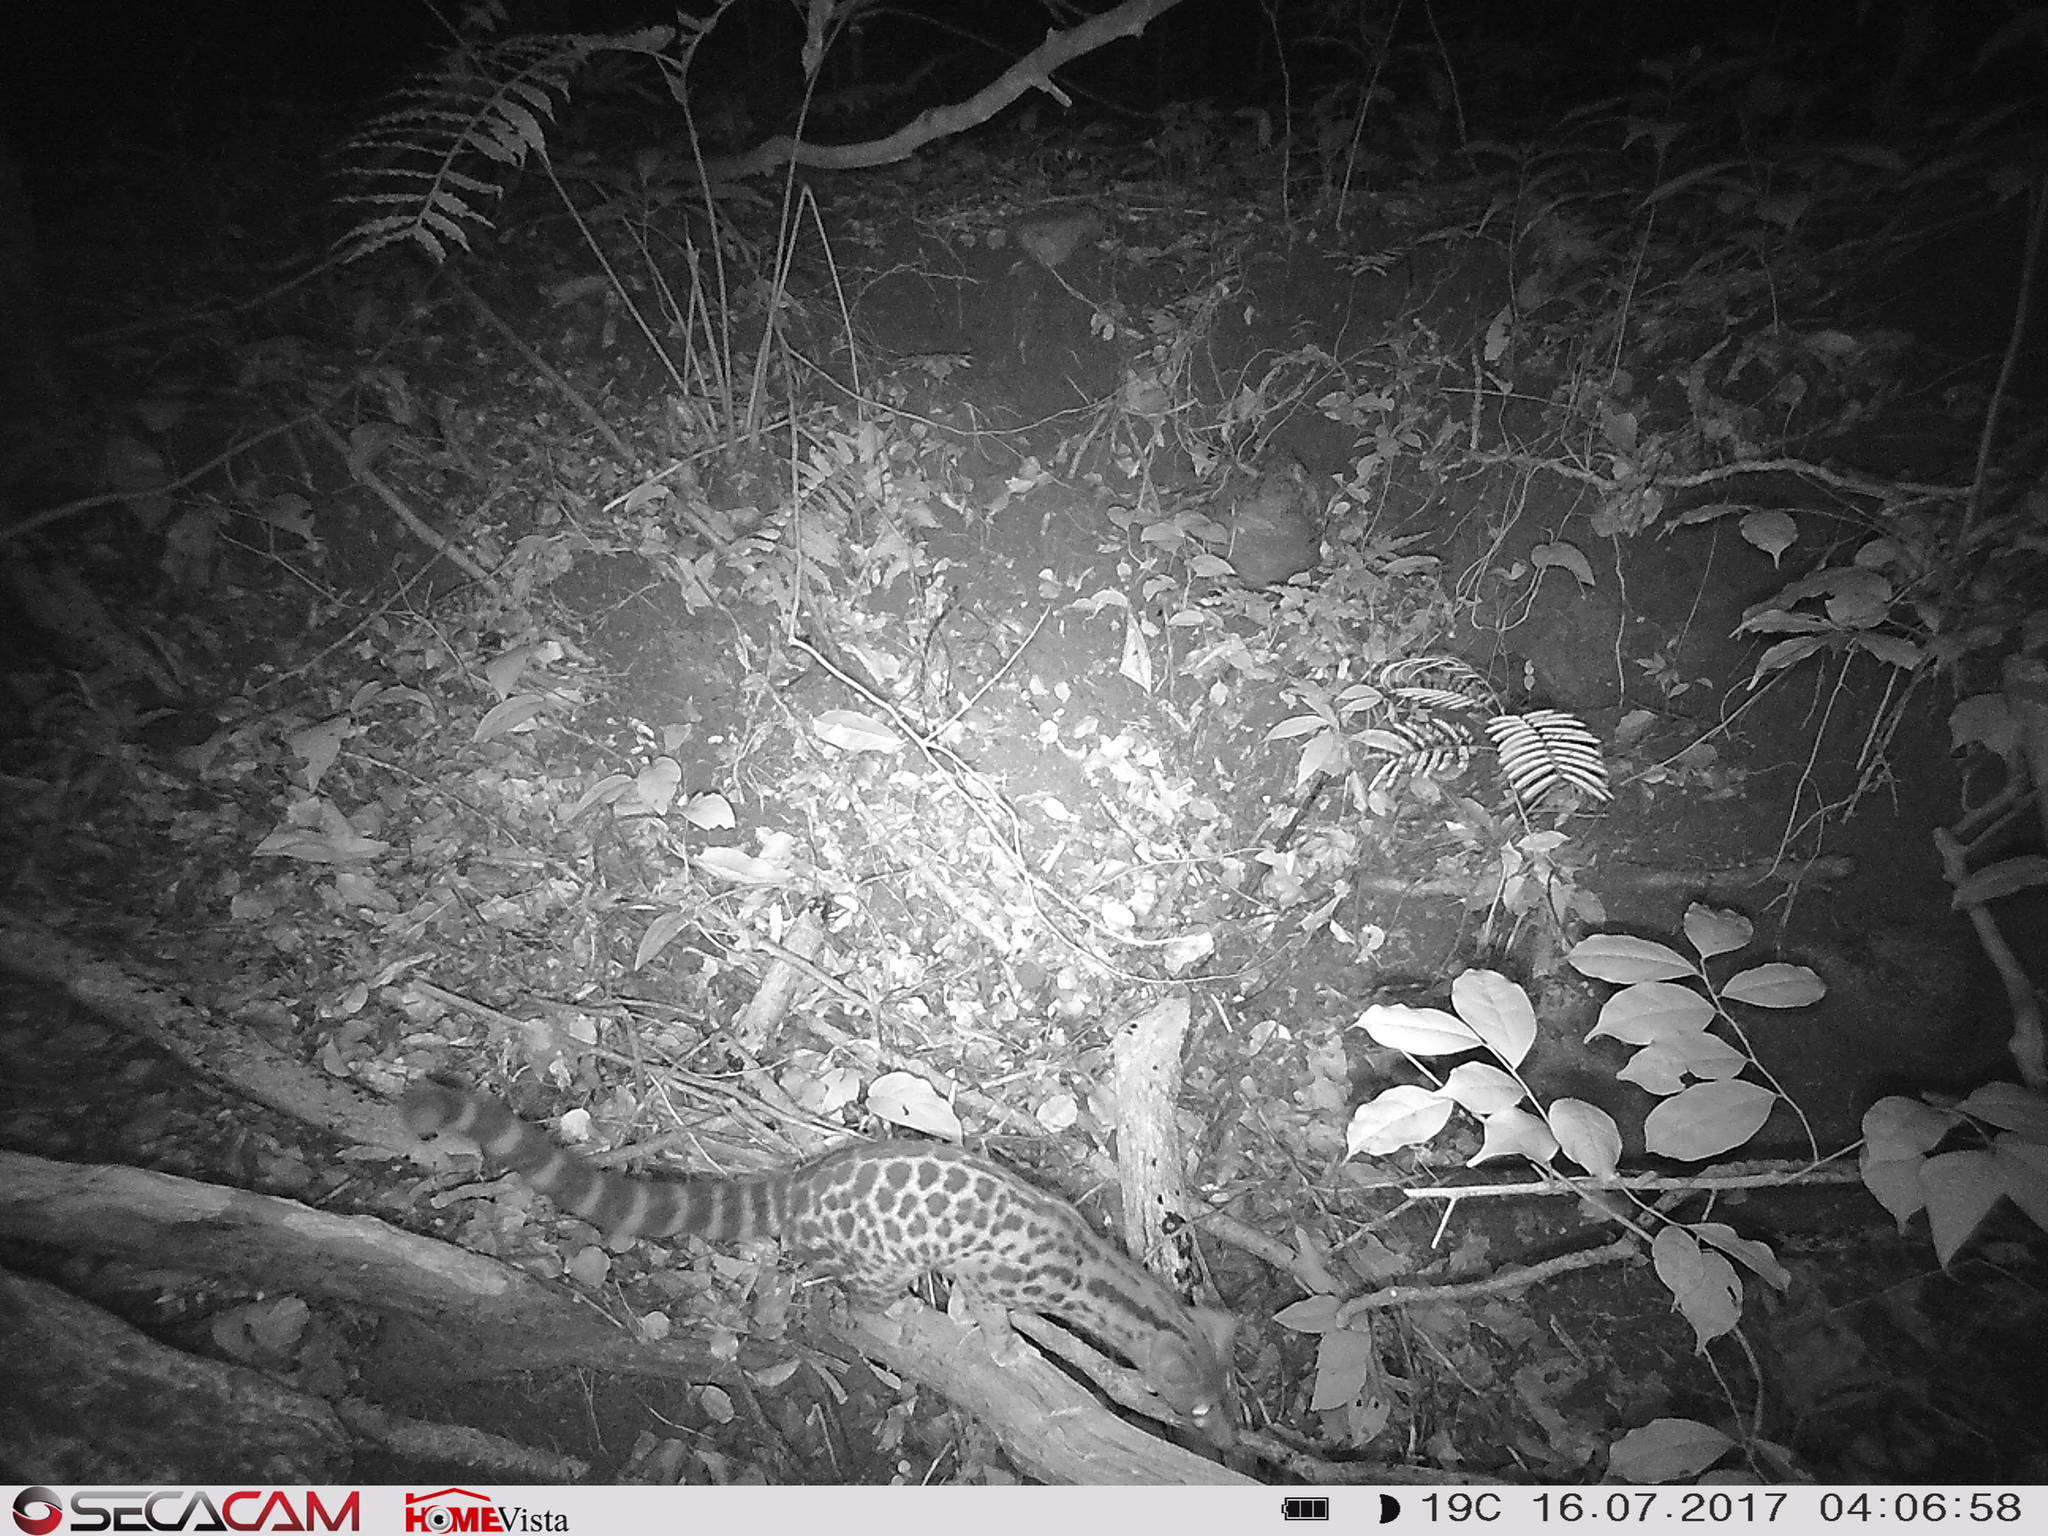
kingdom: Animalia
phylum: Chordata
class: Mammalia
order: Carnivora
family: Viverridae
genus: Genetta
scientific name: Genetta servalina
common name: Servaline genet
